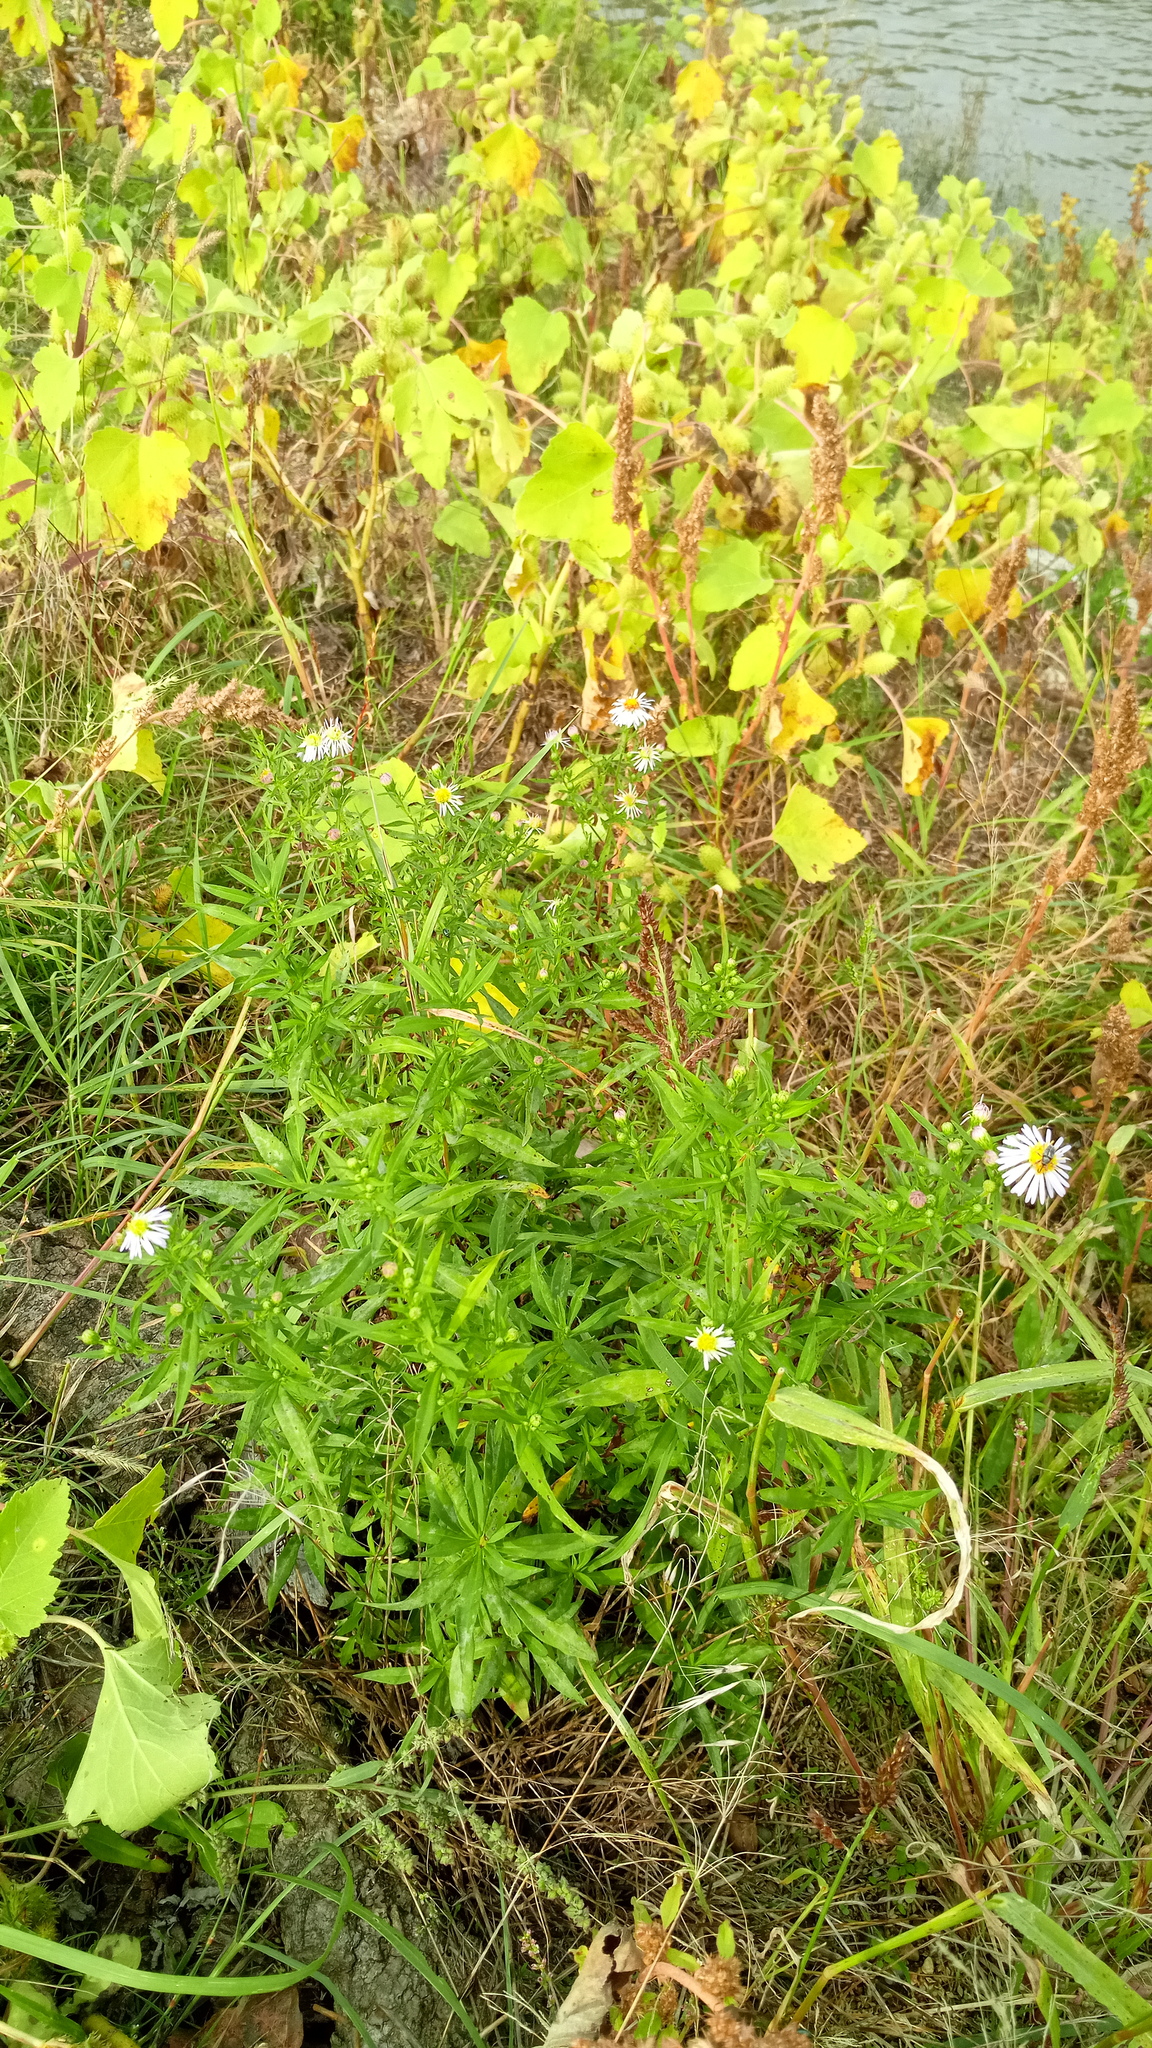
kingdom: Plantae
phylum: Tracheophyta
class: Magnoliopsida
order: Asterales
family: Asteraceae
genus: Symphyotrichum
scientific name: Symphyotrichum lanceolatum
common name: Panicled aster
